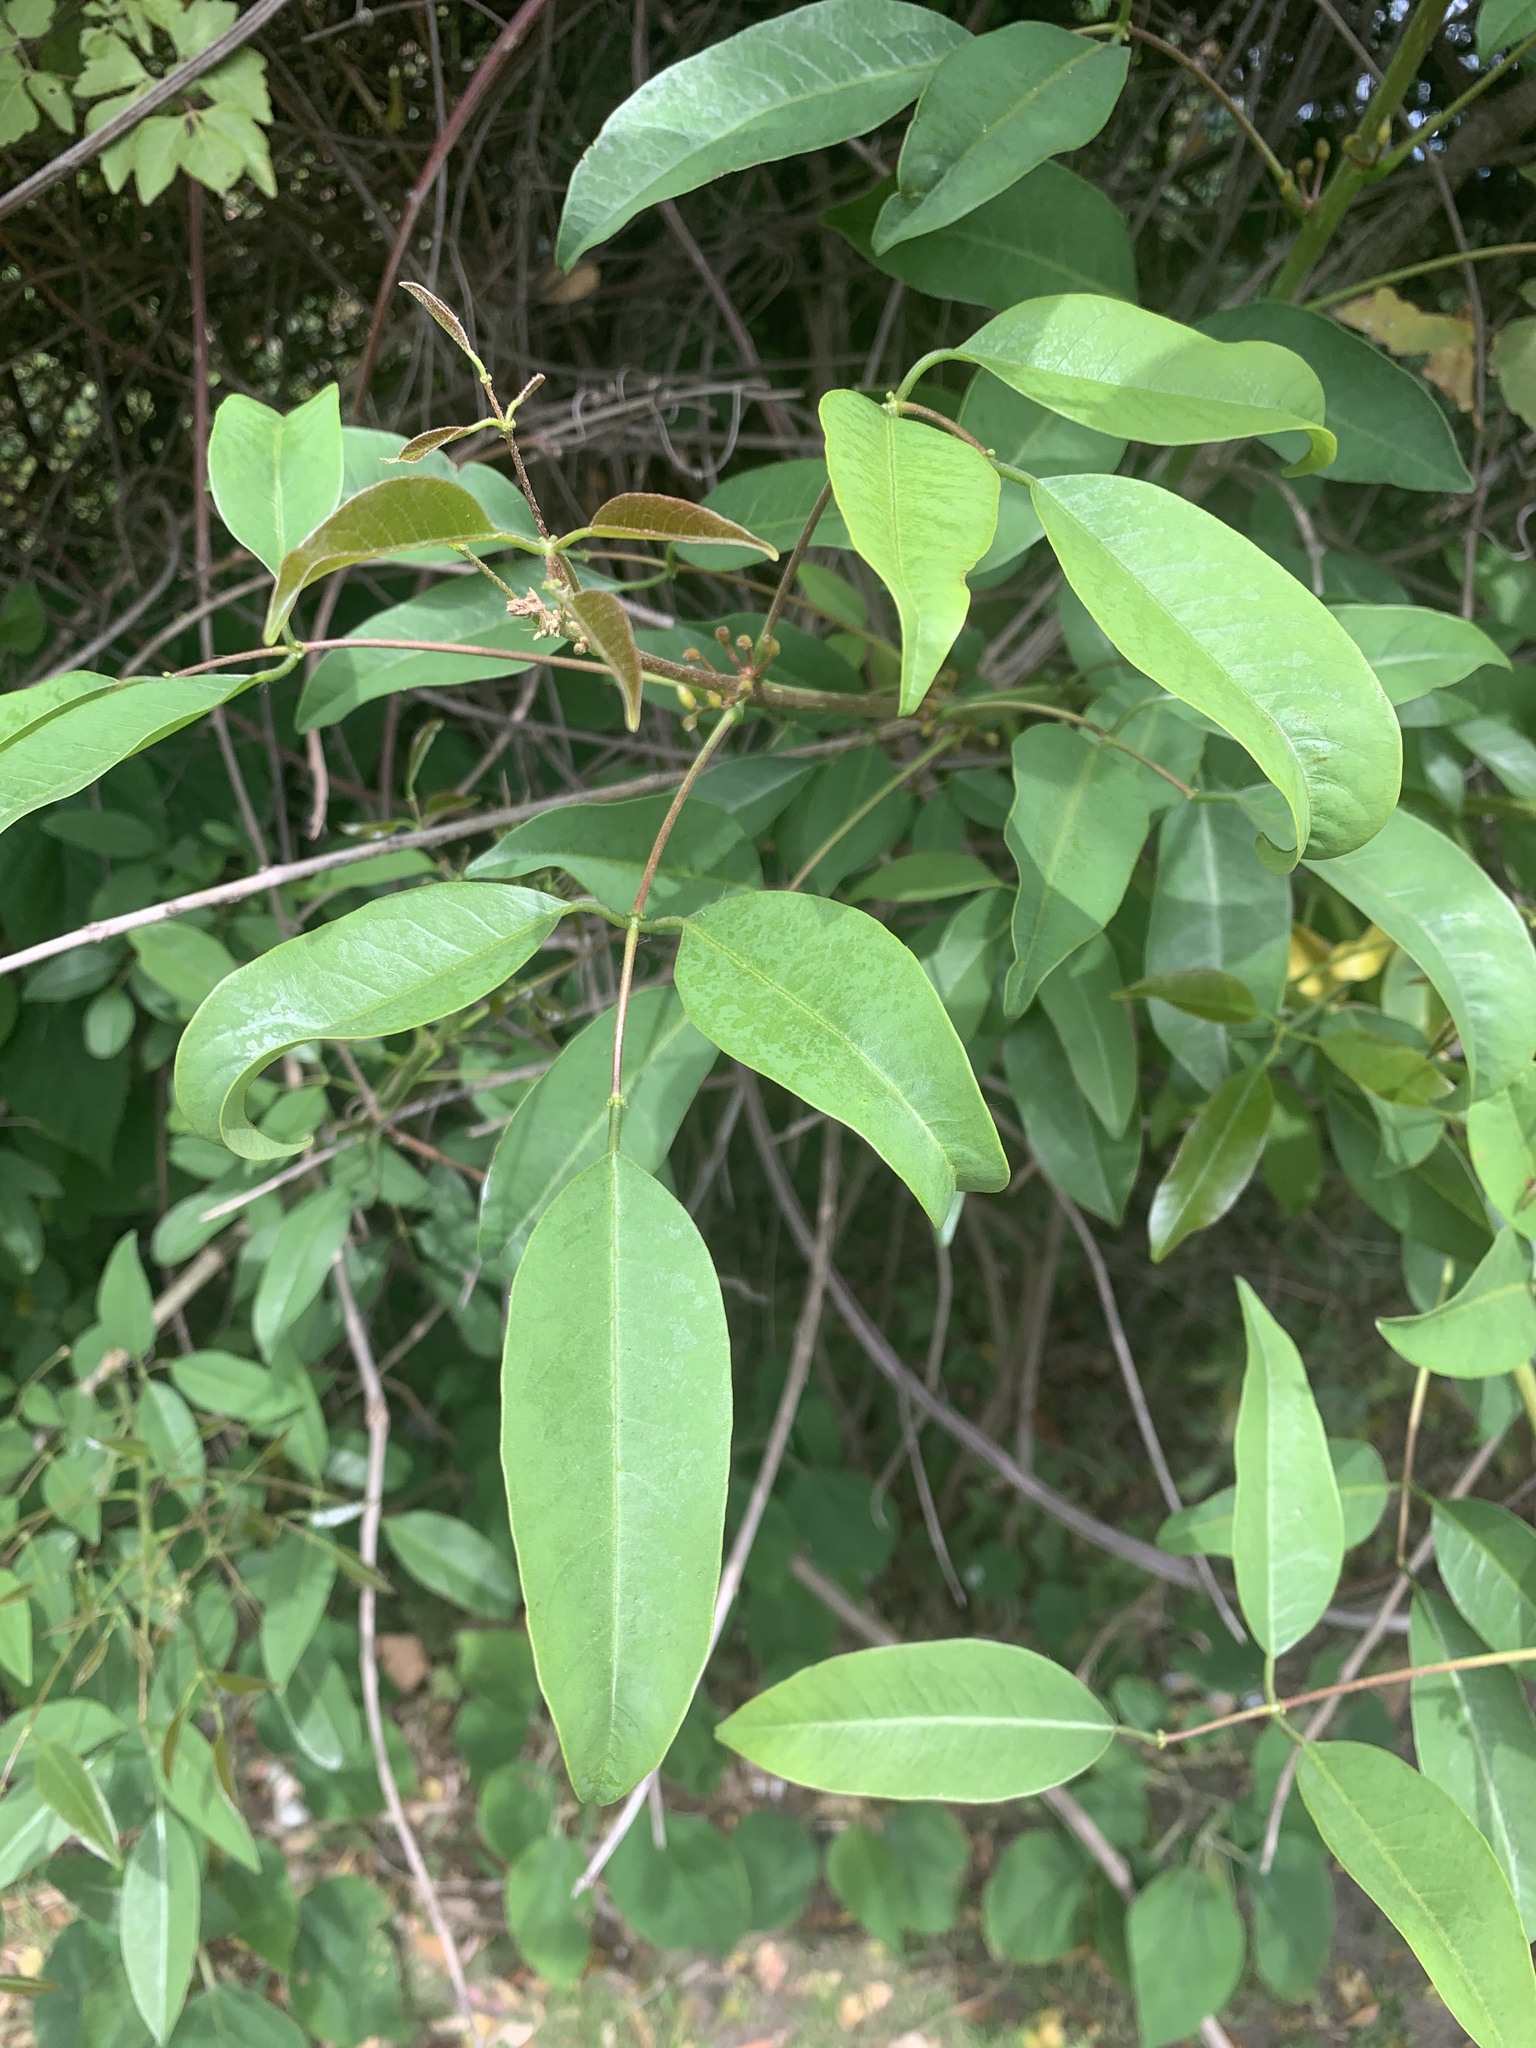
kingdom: Plantae
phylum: Tracheophyta
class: Magnoliopsida
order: Fabales
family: Fabaceae
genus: Erythrina
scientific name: Erythrina crista-galli
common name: Cockspur coral tree
